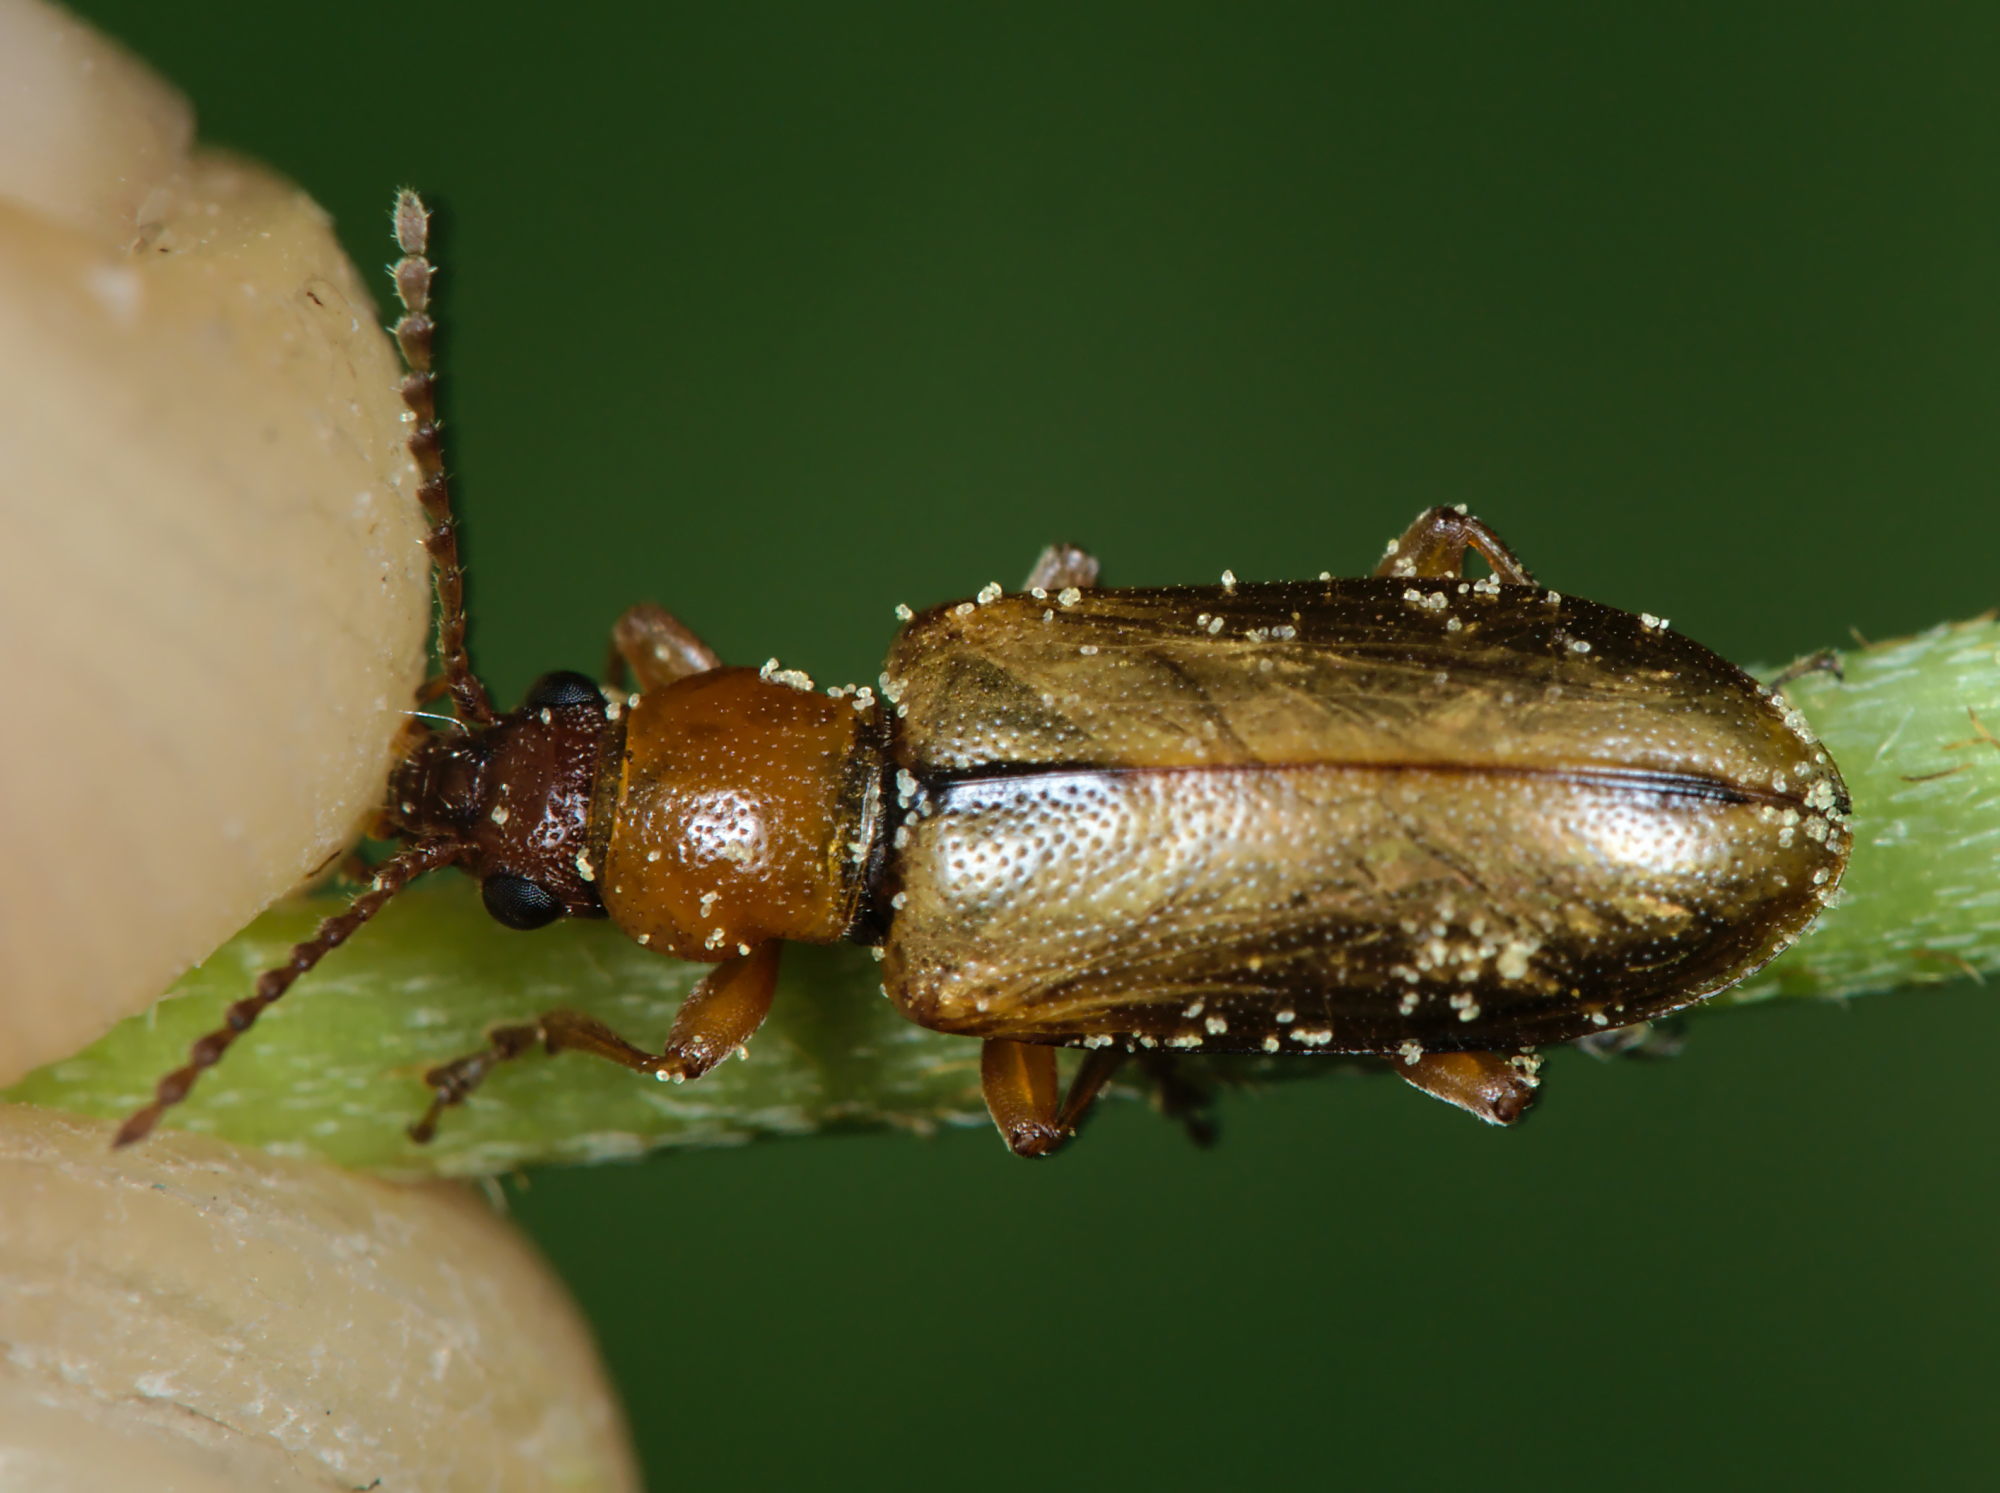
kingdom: Animalia
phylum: Arthropoda
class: Insecta
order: Coleoptera
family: Orsodacnidae
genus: Orsodacne
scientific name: Orsodacne cerasi
